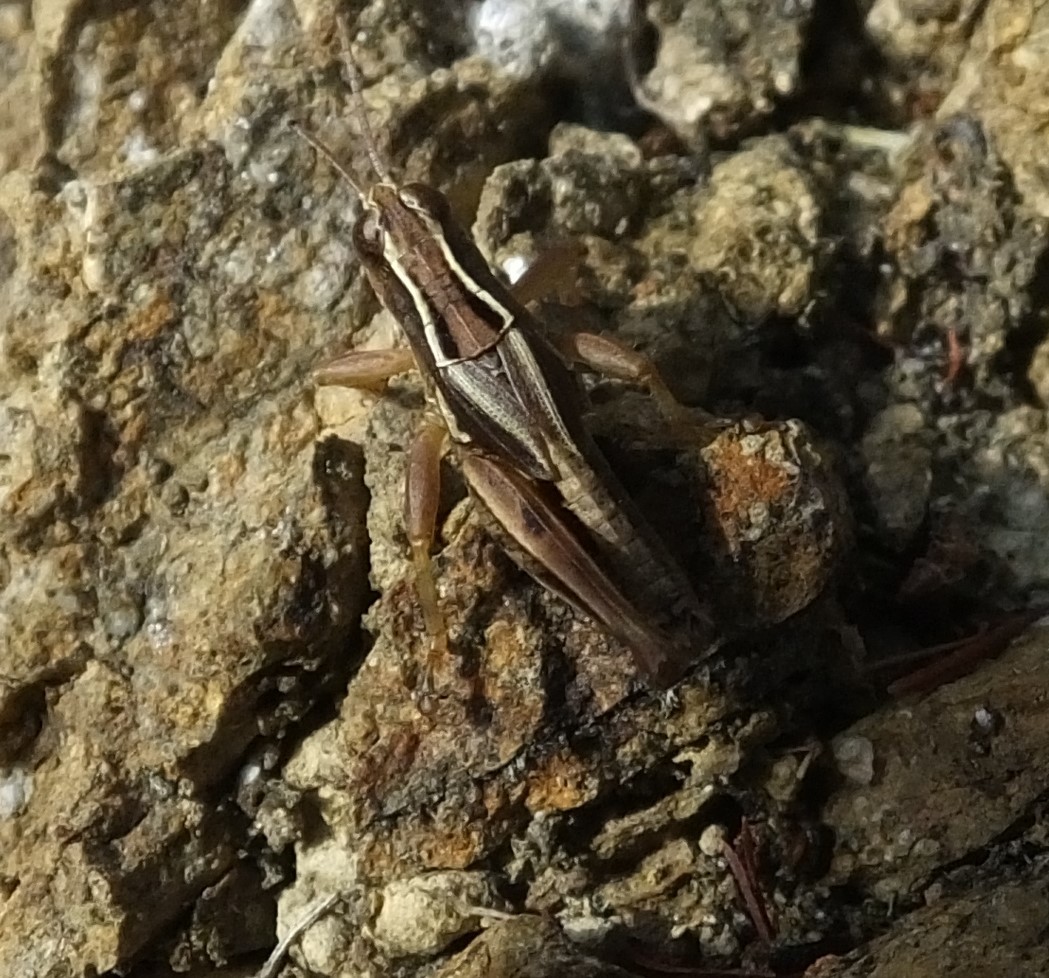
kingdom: Animalia
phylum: Arthropoda
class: Insecta
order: Orthoptera
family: Acrididae
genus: Phaulacridium
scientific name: Phaulacridium marginale
